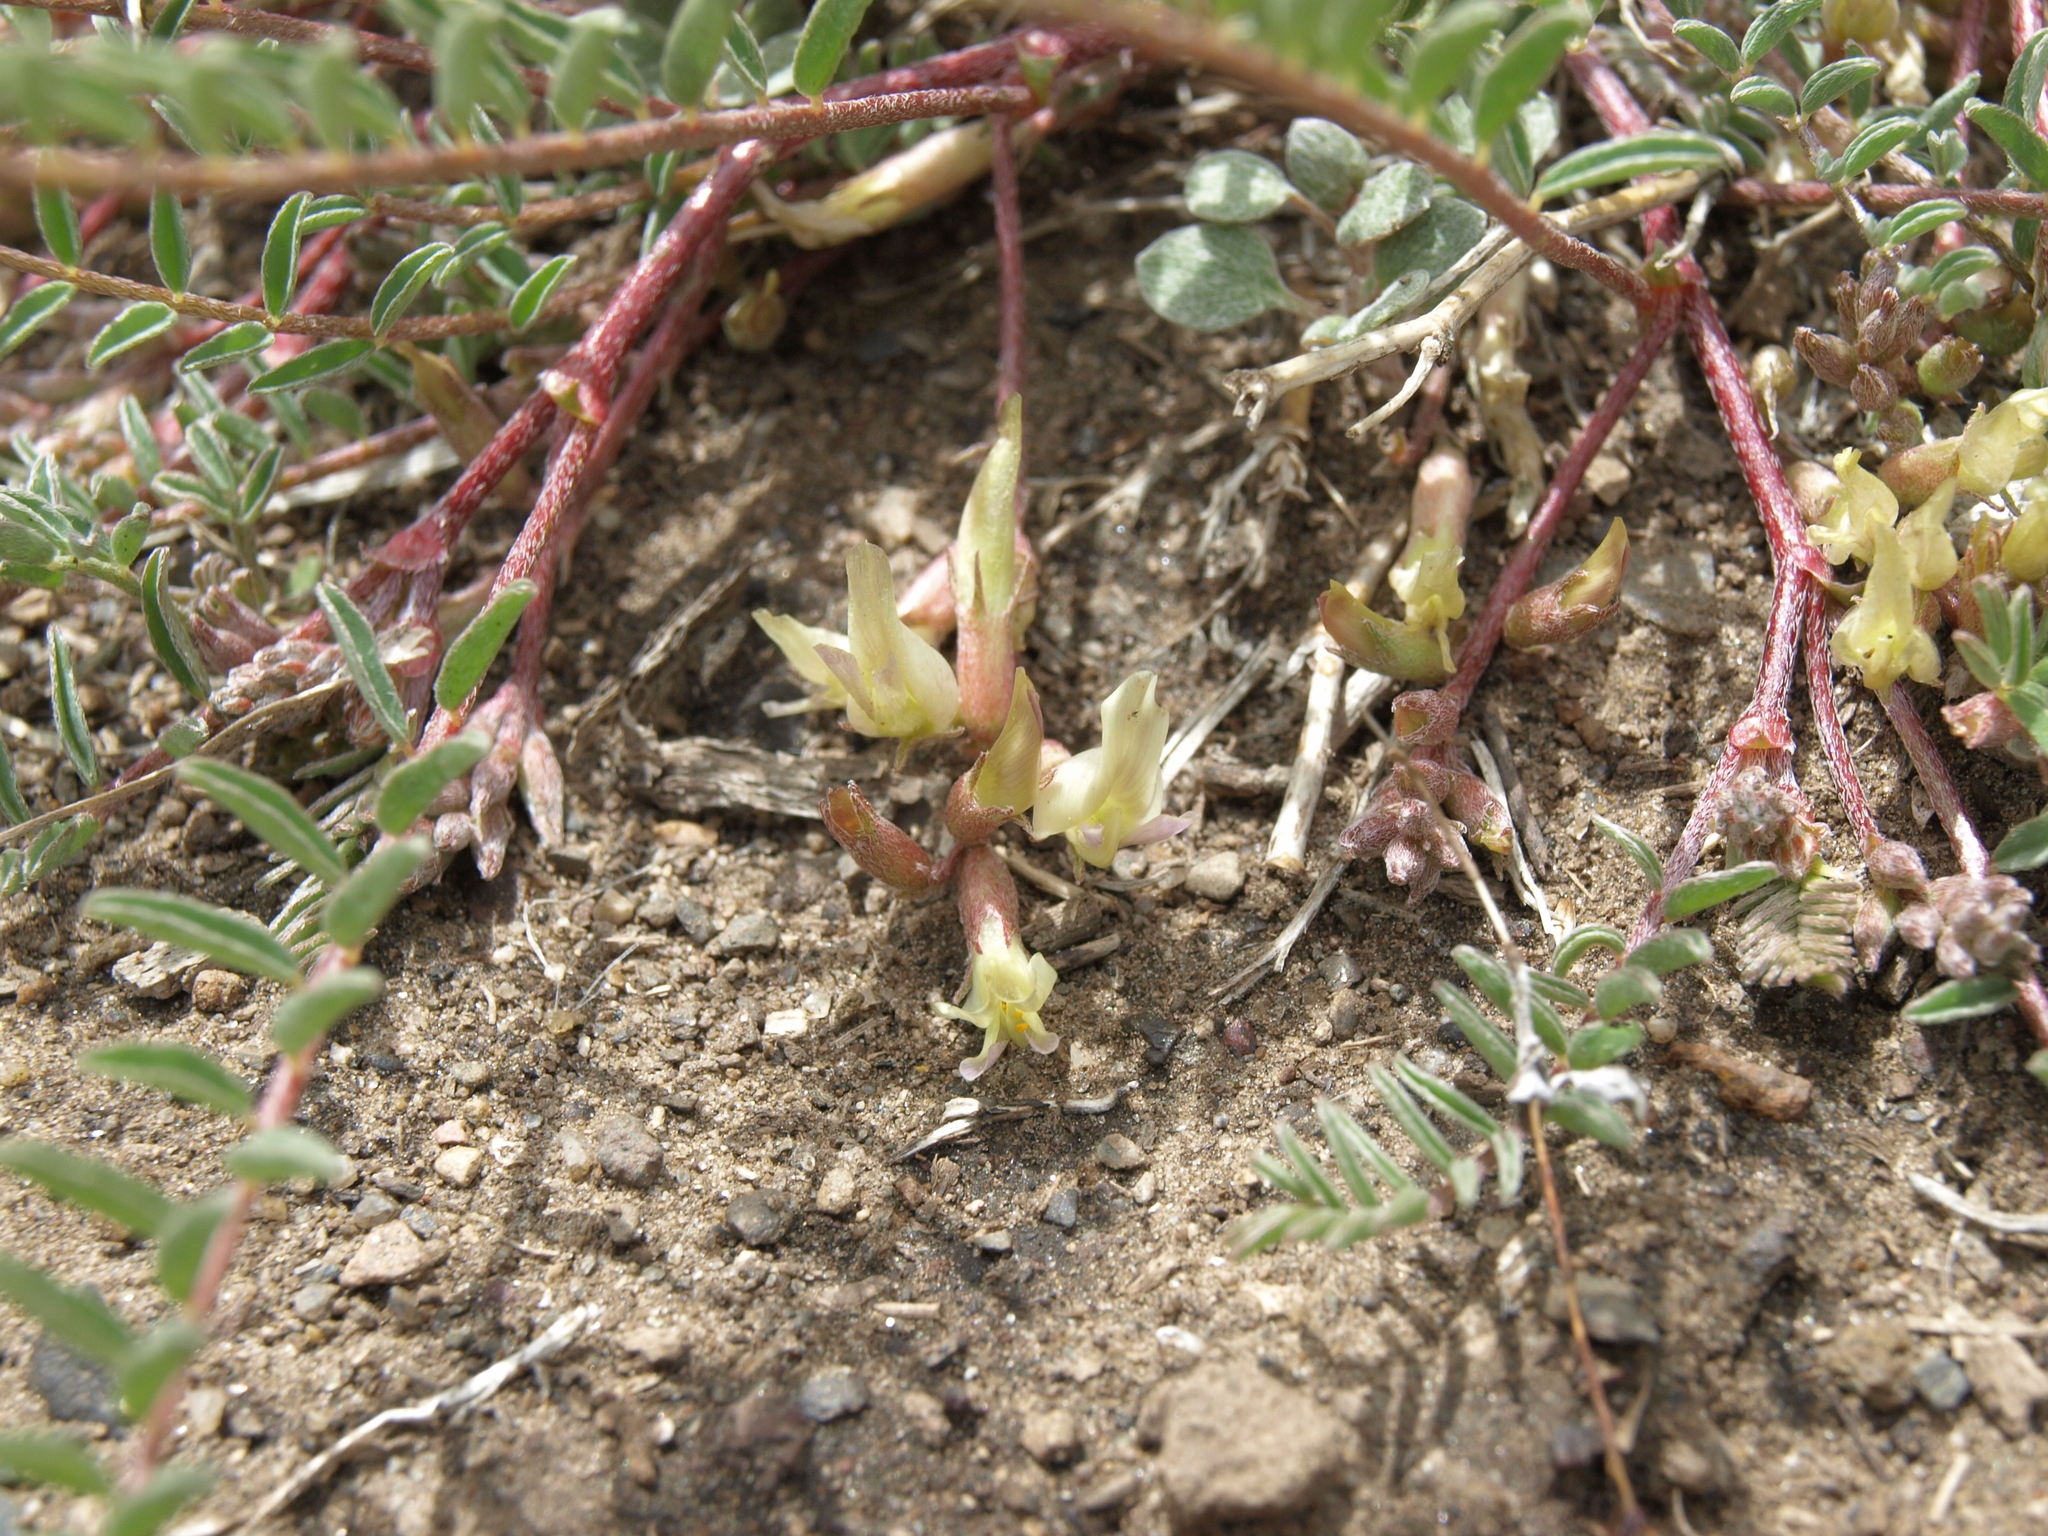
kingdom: Plantae
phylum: Tracheophyta
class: Magnoliopsida
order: Fabales
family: Fabaceae
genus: Astragalus
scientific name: Astragalus lentiginosus
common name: Freckled milkvetch
